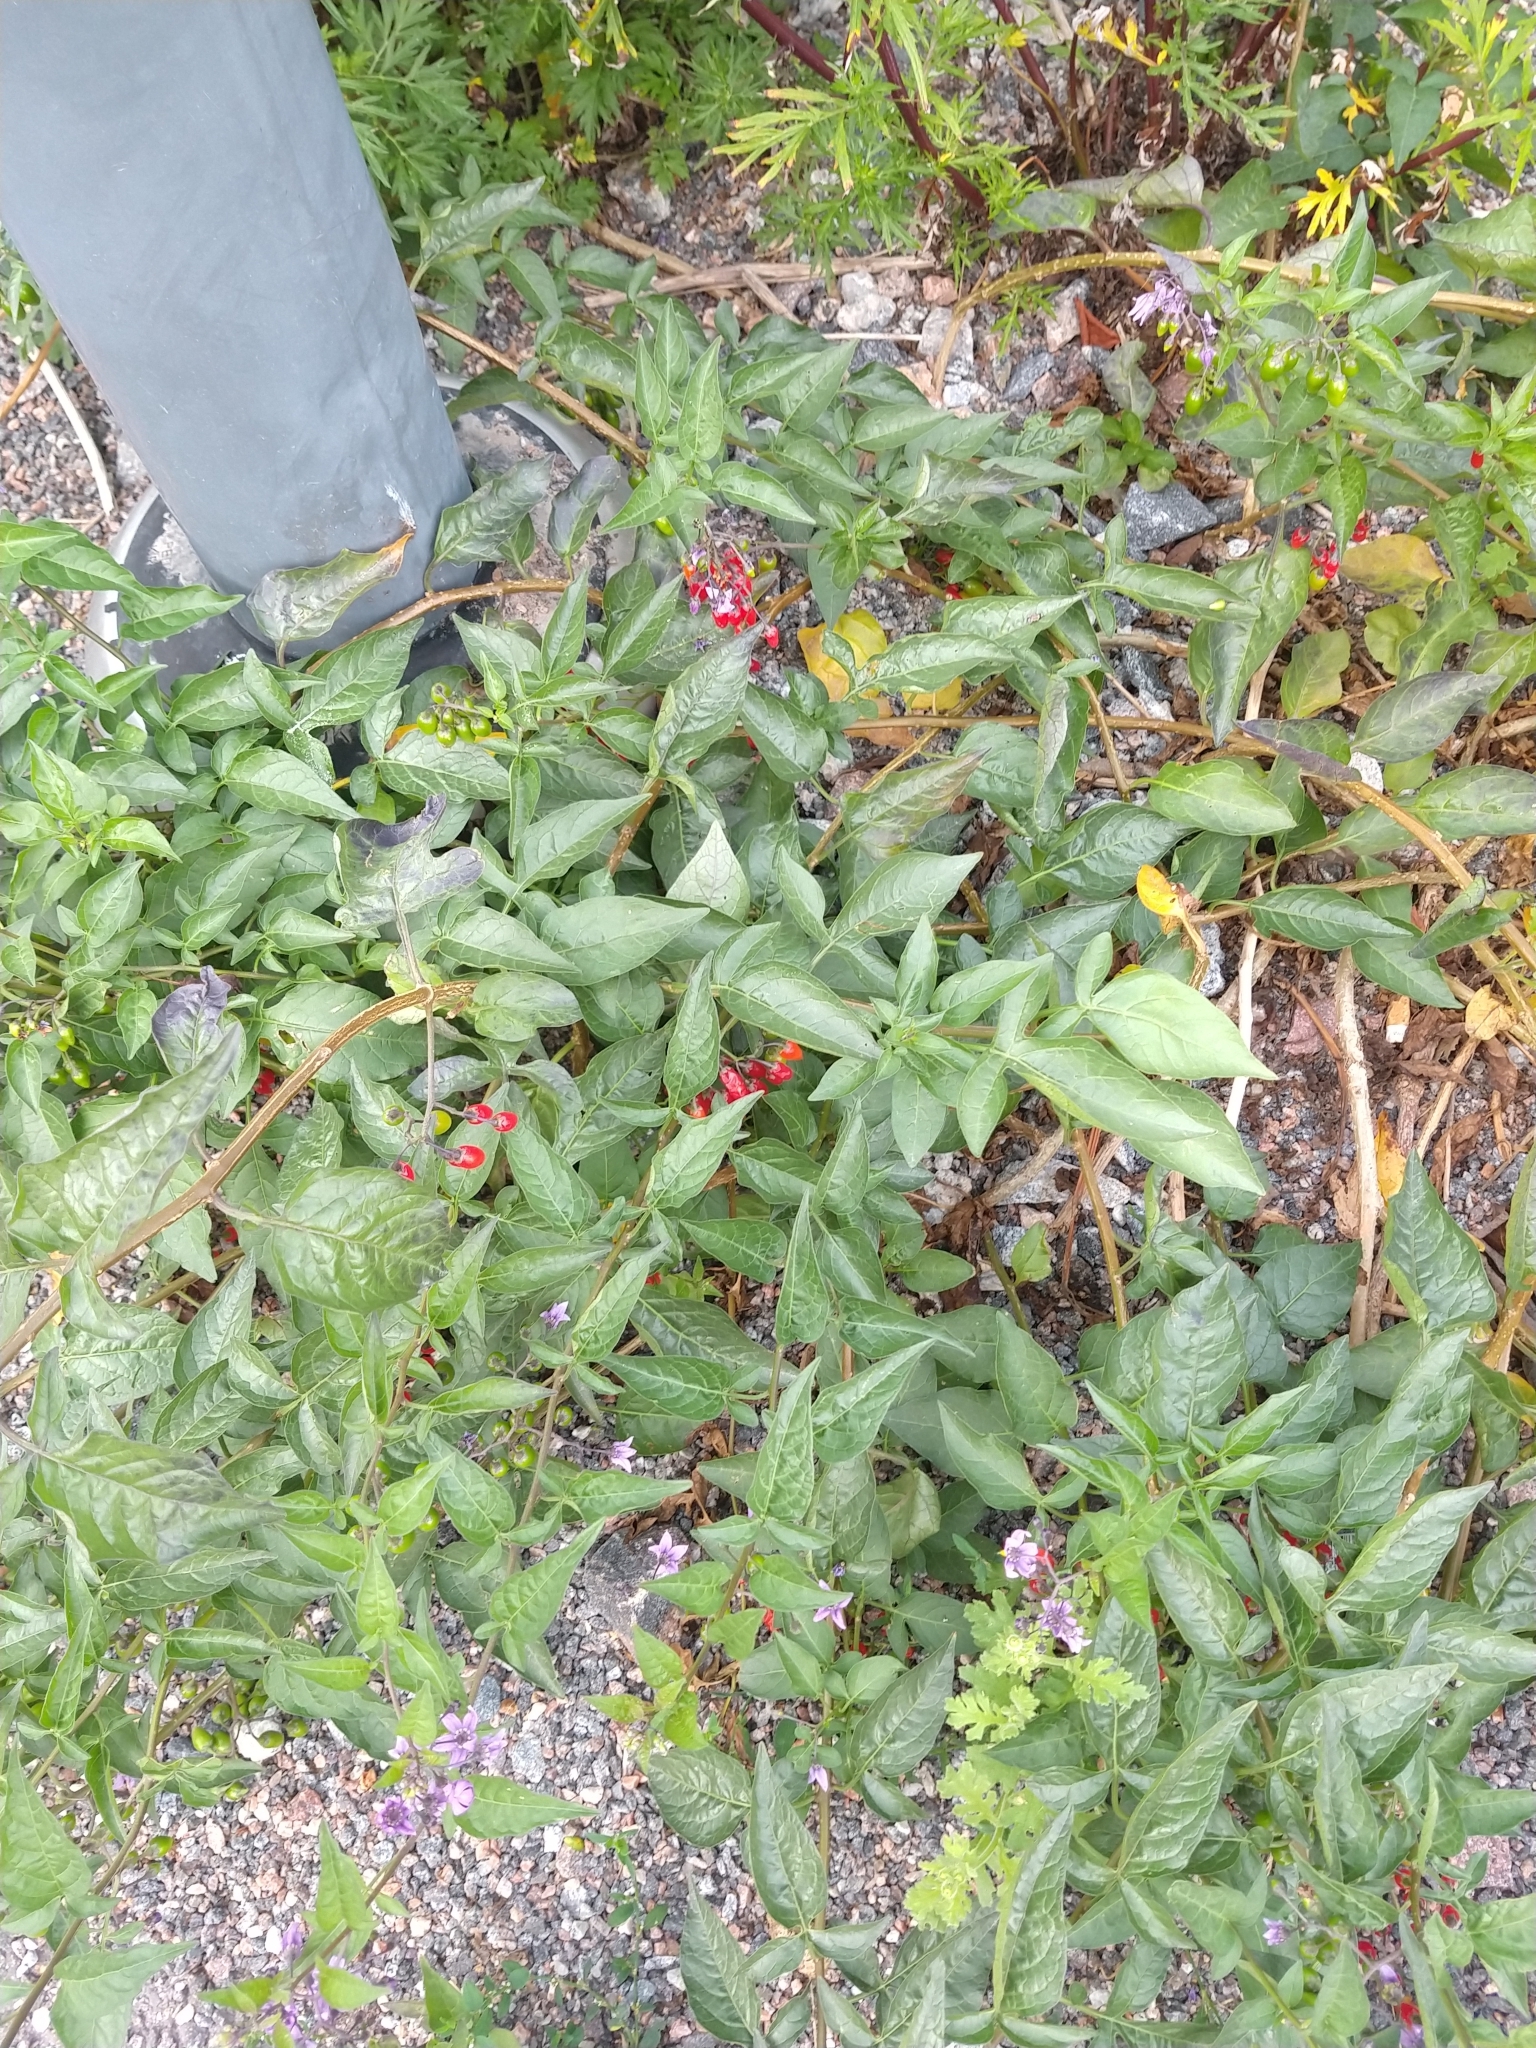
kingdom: Plantae
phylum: Tracheophyta
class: Magnoliopsida
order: Solanales
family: Solanaceae
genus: Solanum
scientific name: Solanum dulcamara
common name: Climbing nightshade
